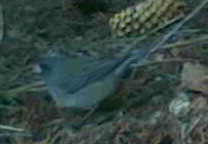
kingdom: Animalia
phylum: Chordata
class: Aves
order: Passeriformes
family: Passerellidae
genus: Junco
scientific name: Junco hyemalis
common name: Dark-eyed junco
